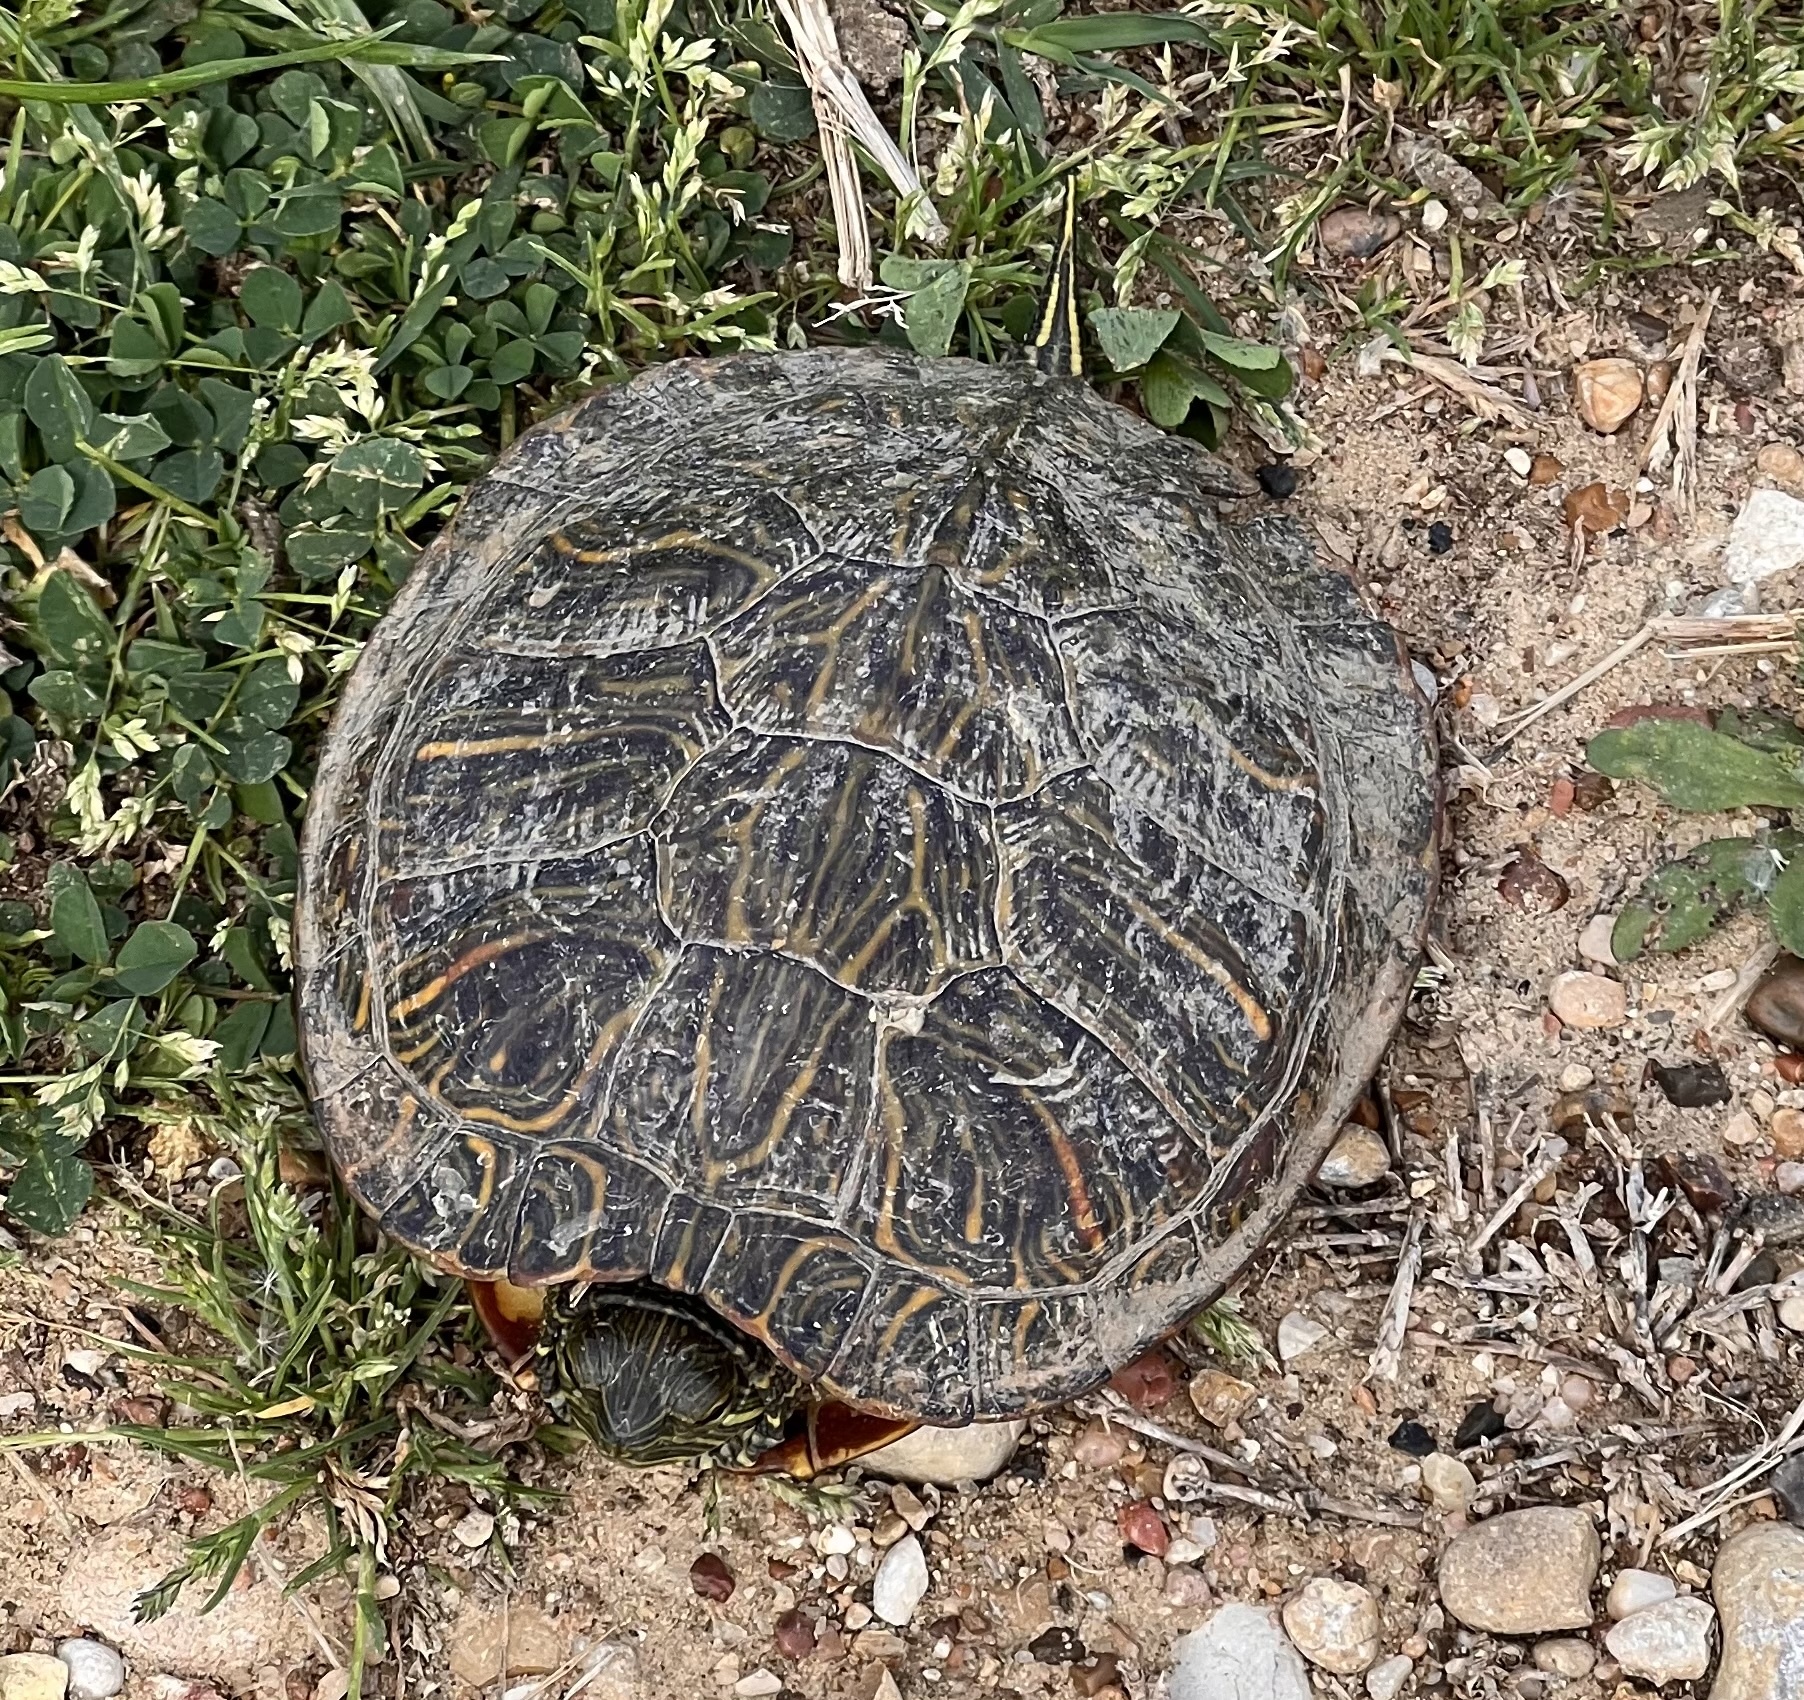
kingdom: Animalia
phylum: Chordata
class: Testudines
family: Emydidae
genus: Trachemys
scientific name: Trachemys scripta
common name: Slider
